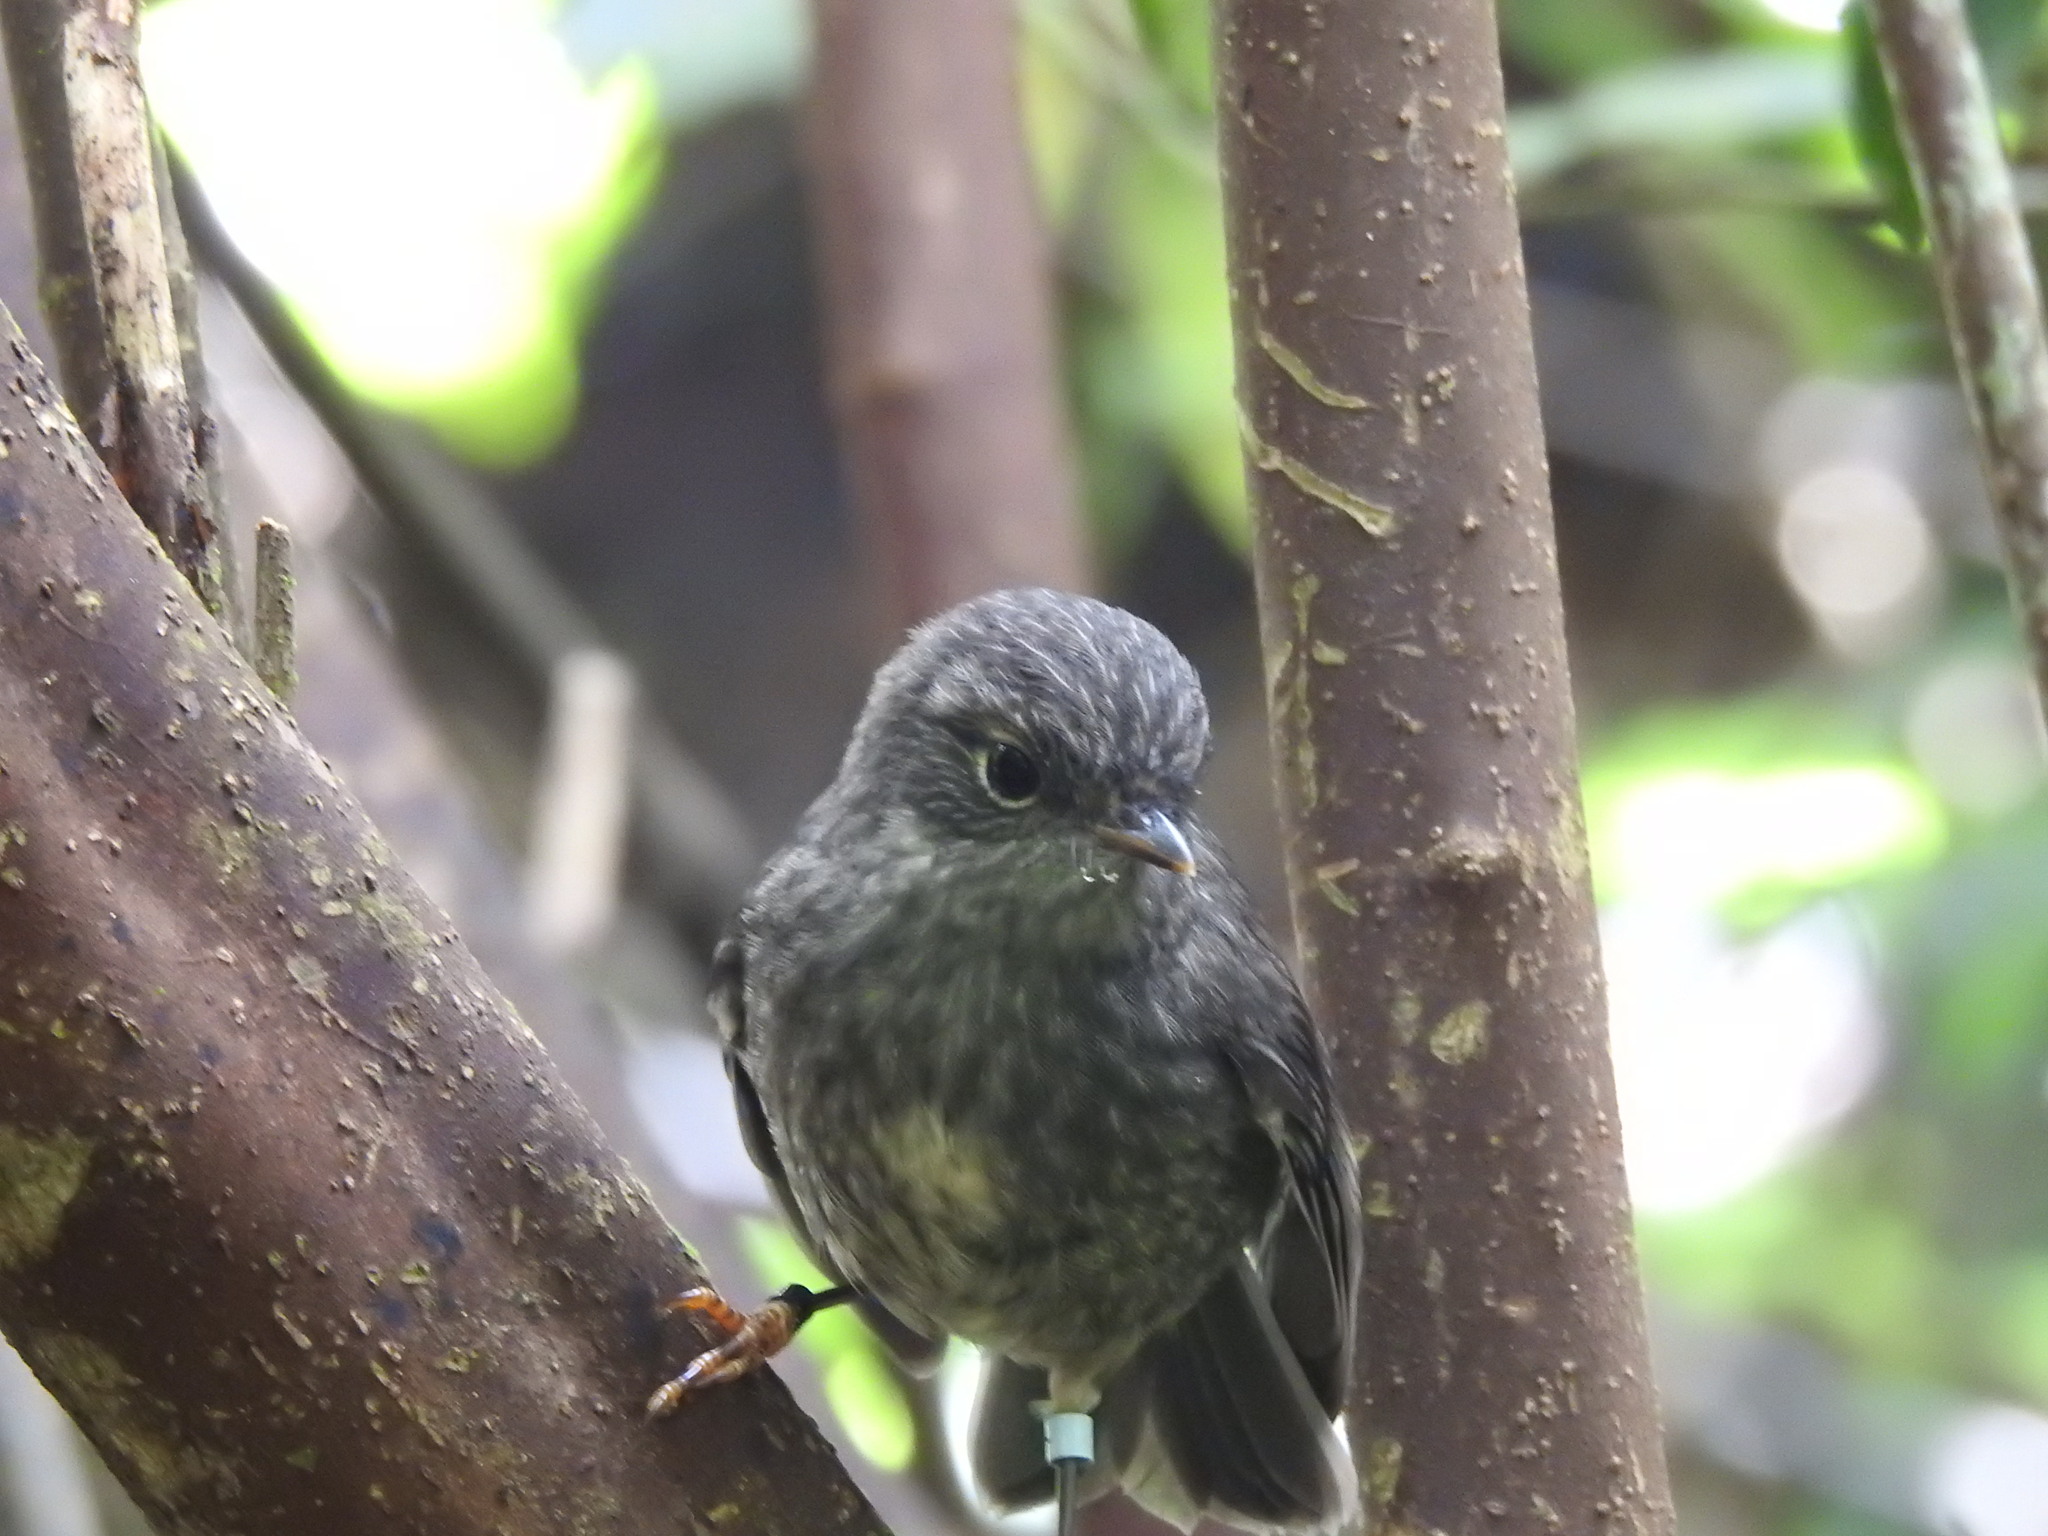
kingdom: Animalia
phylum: Chordata
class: Aves
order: Passeriformes
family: Petroicidae
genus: Petroica
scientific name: Petroica australis
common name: New zealand robin
